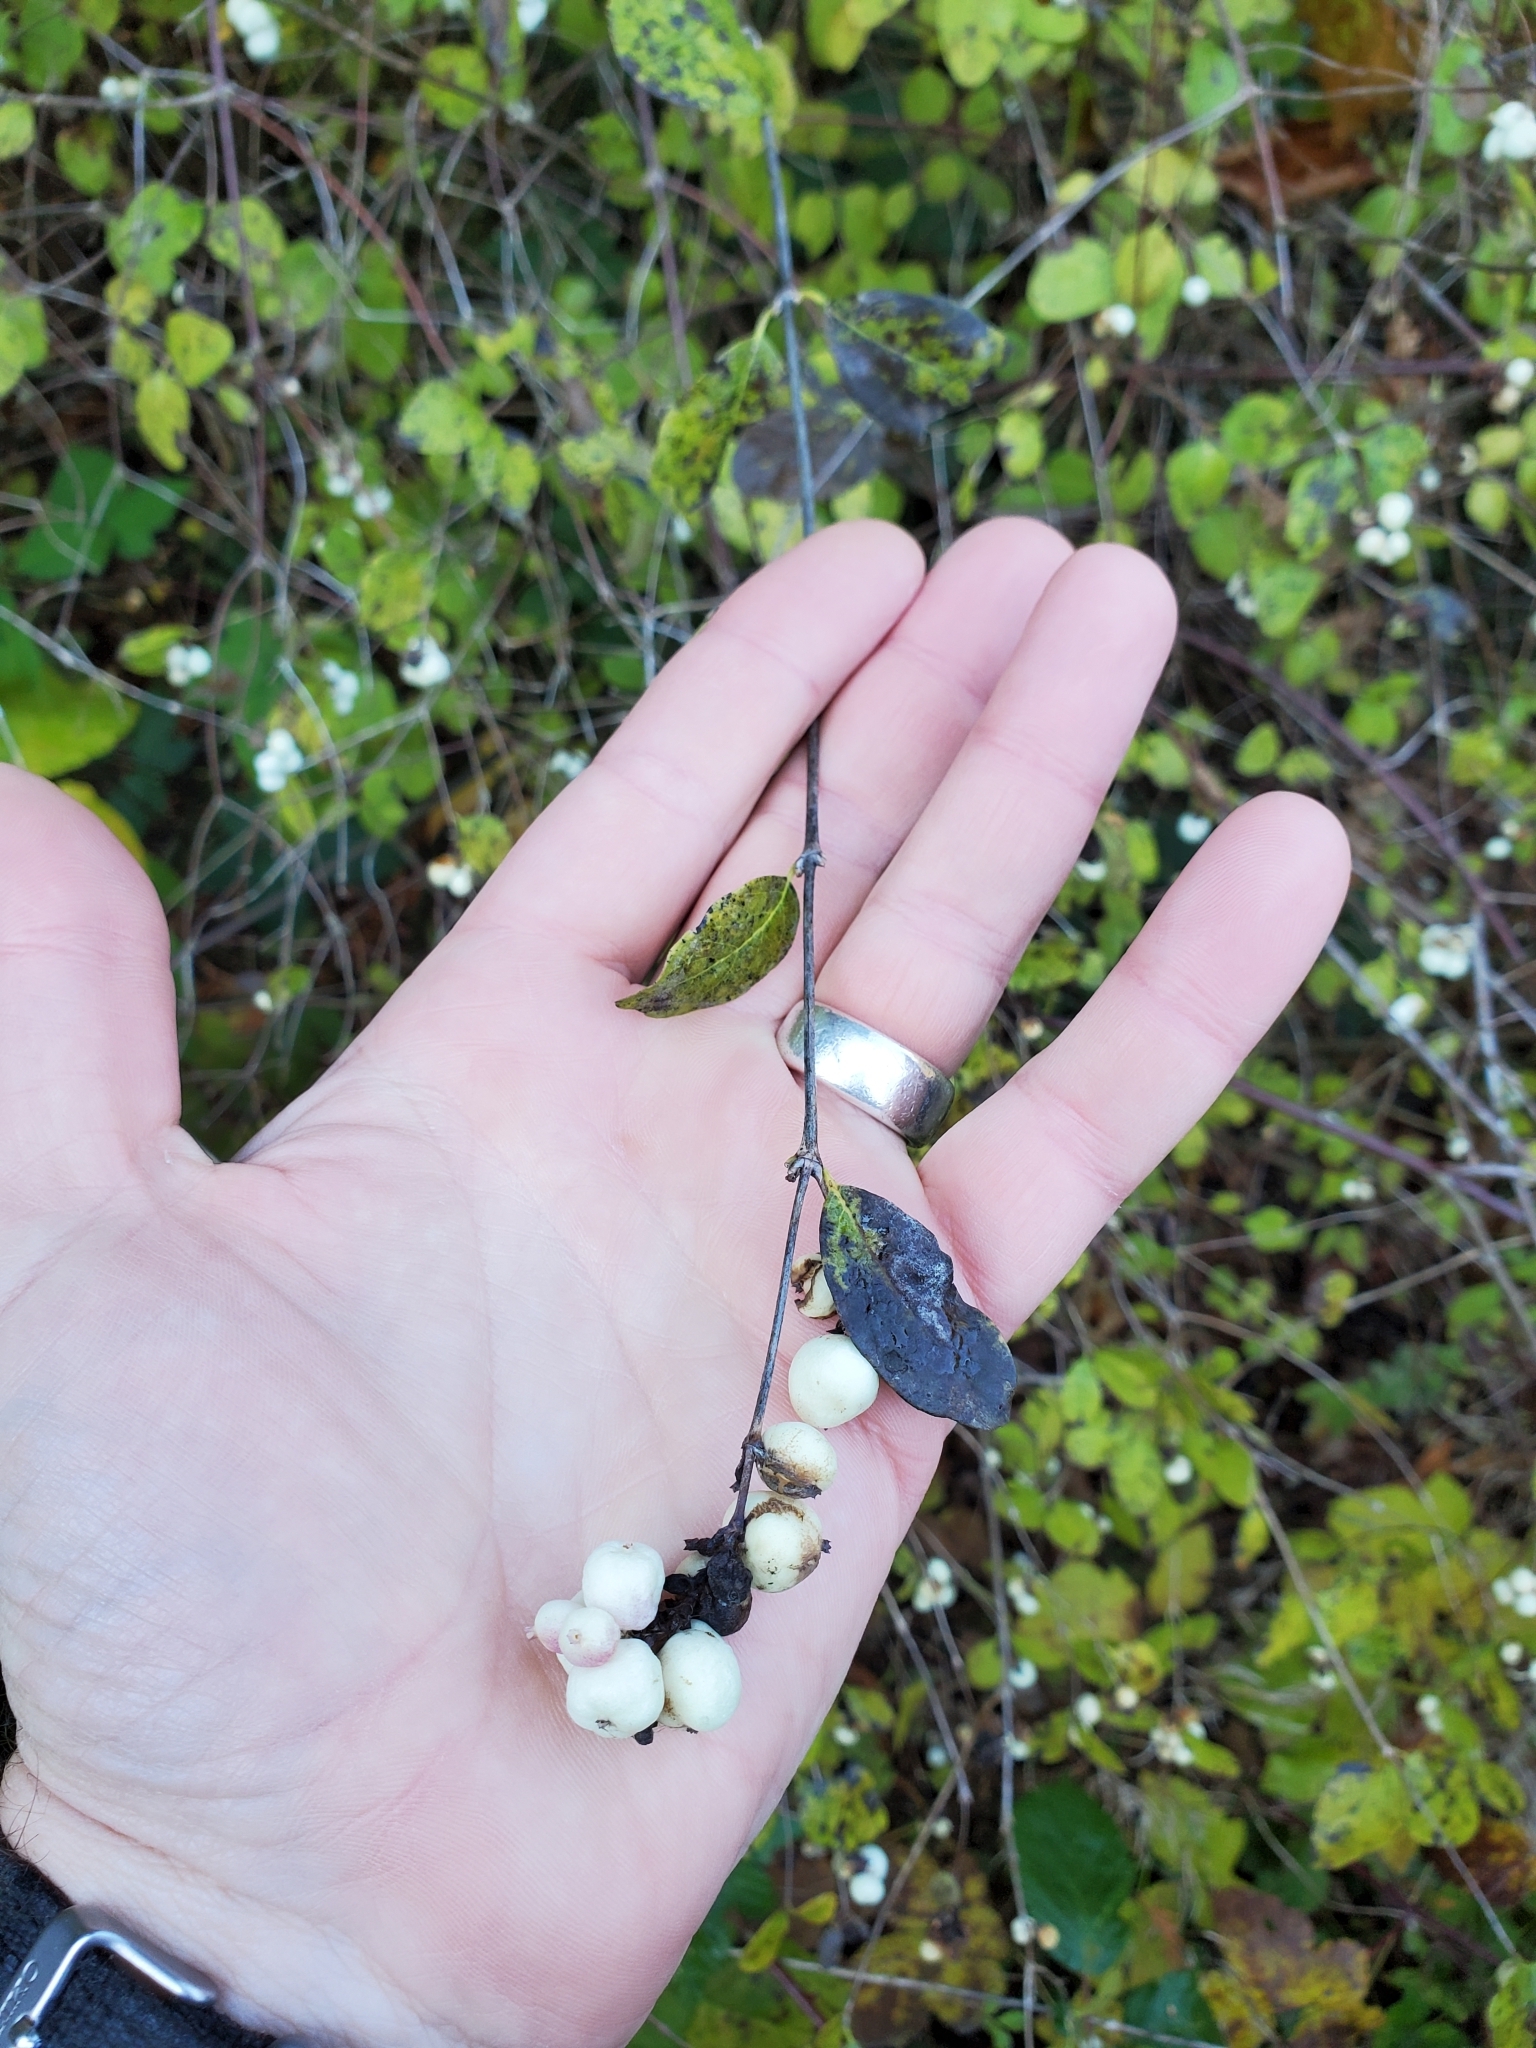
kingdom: Plantae
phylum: Tracheophyta
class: Magnoliopsida
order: Dipsacales
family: Caprifoliaceae
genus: Symphoricarpos
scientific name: Symphoricarpos albus
